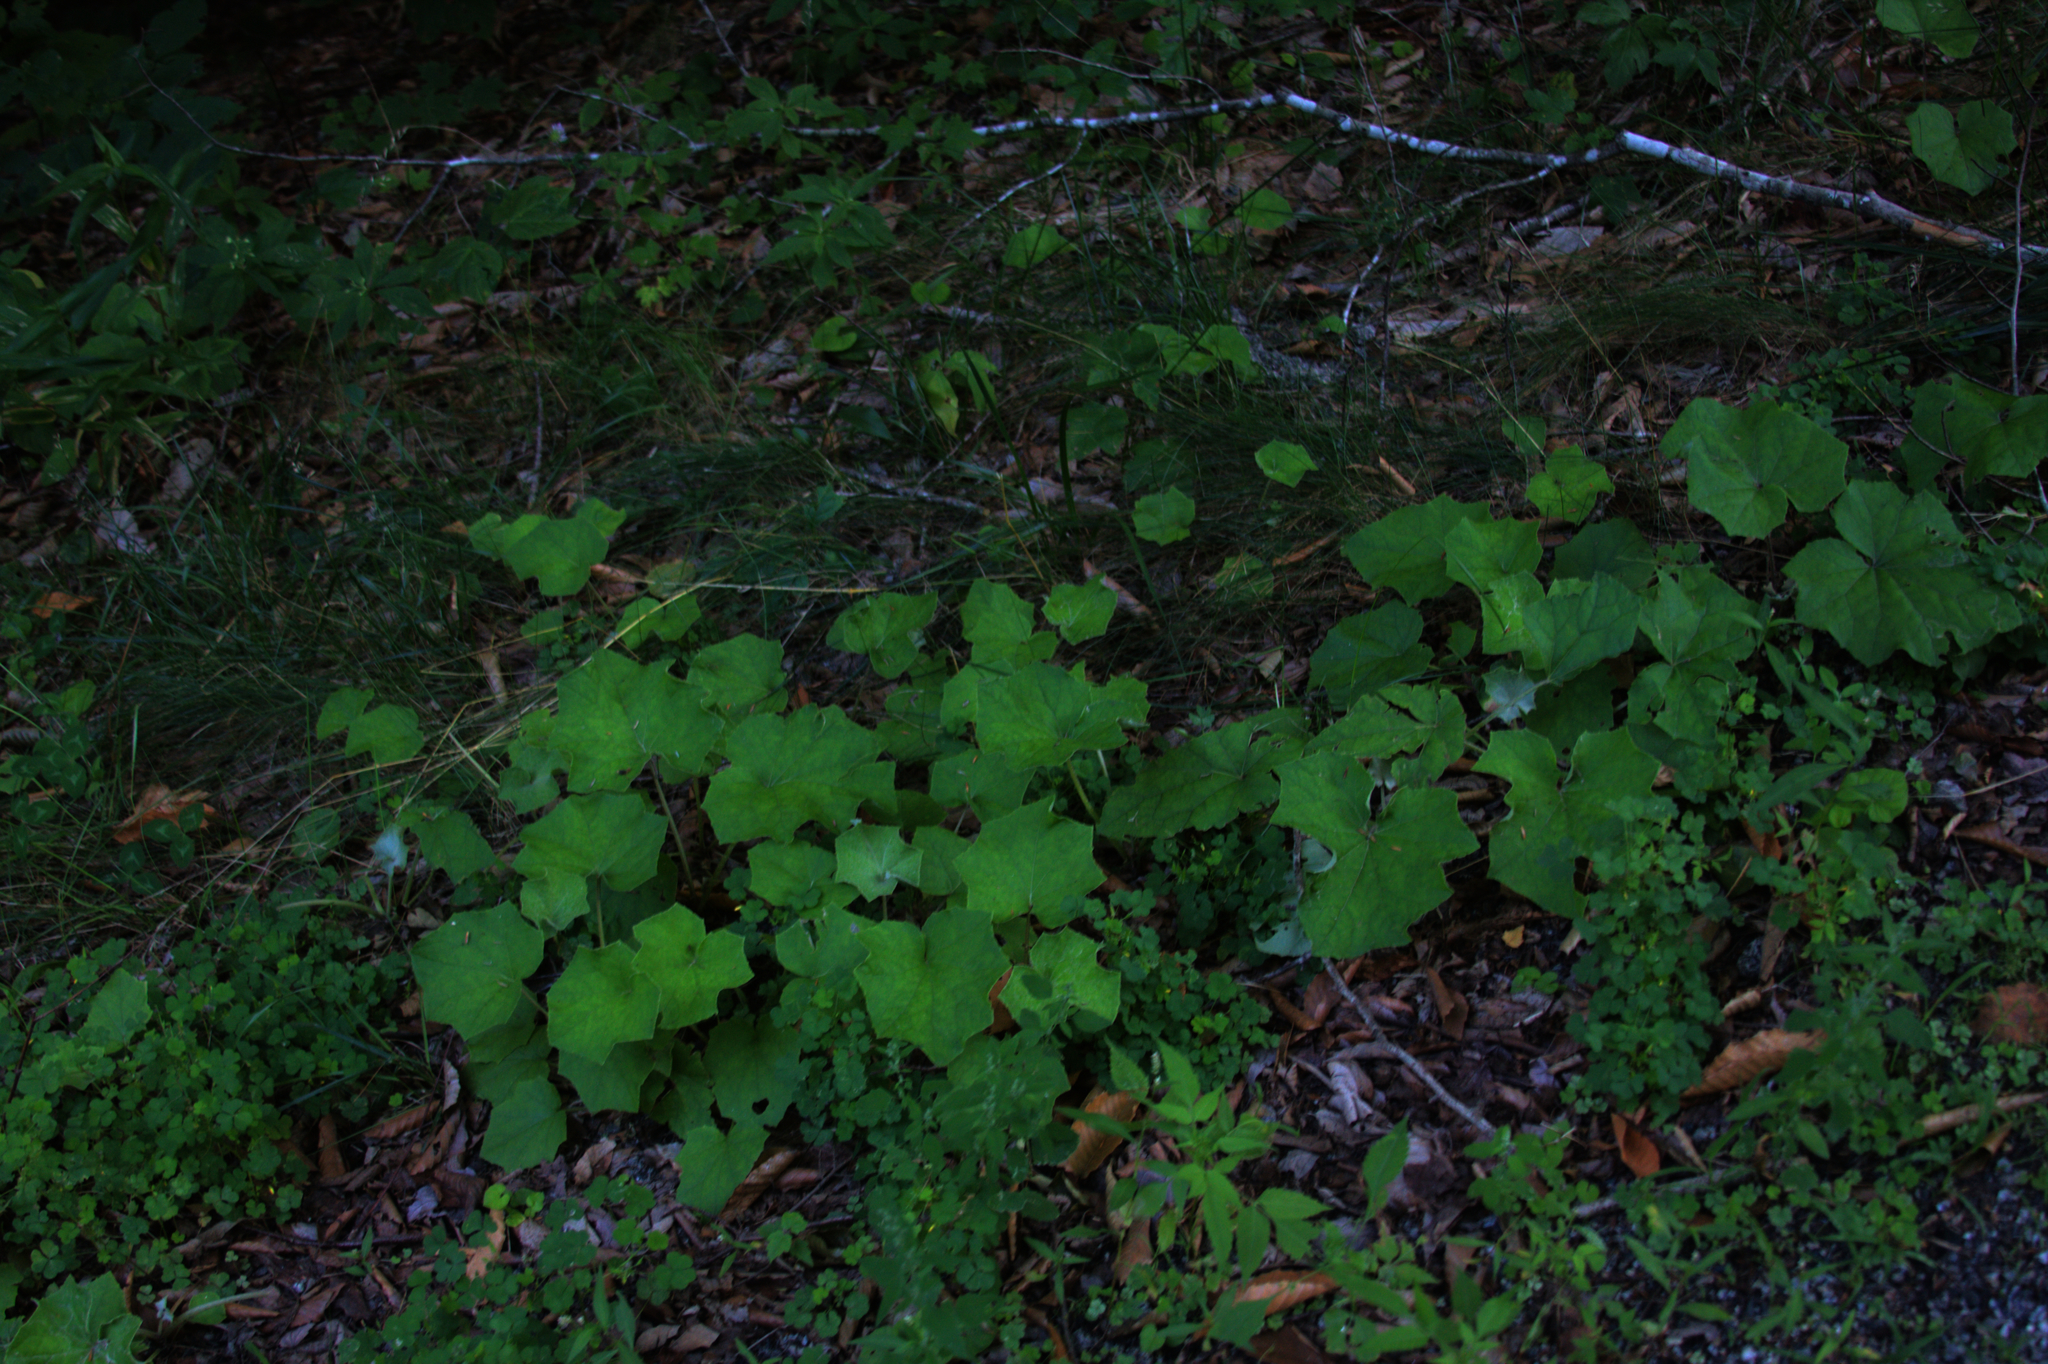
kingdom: Plantae
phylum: Tracheophyta
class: Magnoliopsida
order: Asterales
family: Asteraceae
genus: Tussilago
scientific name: Tussilago farfara
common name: Coltsfoot
